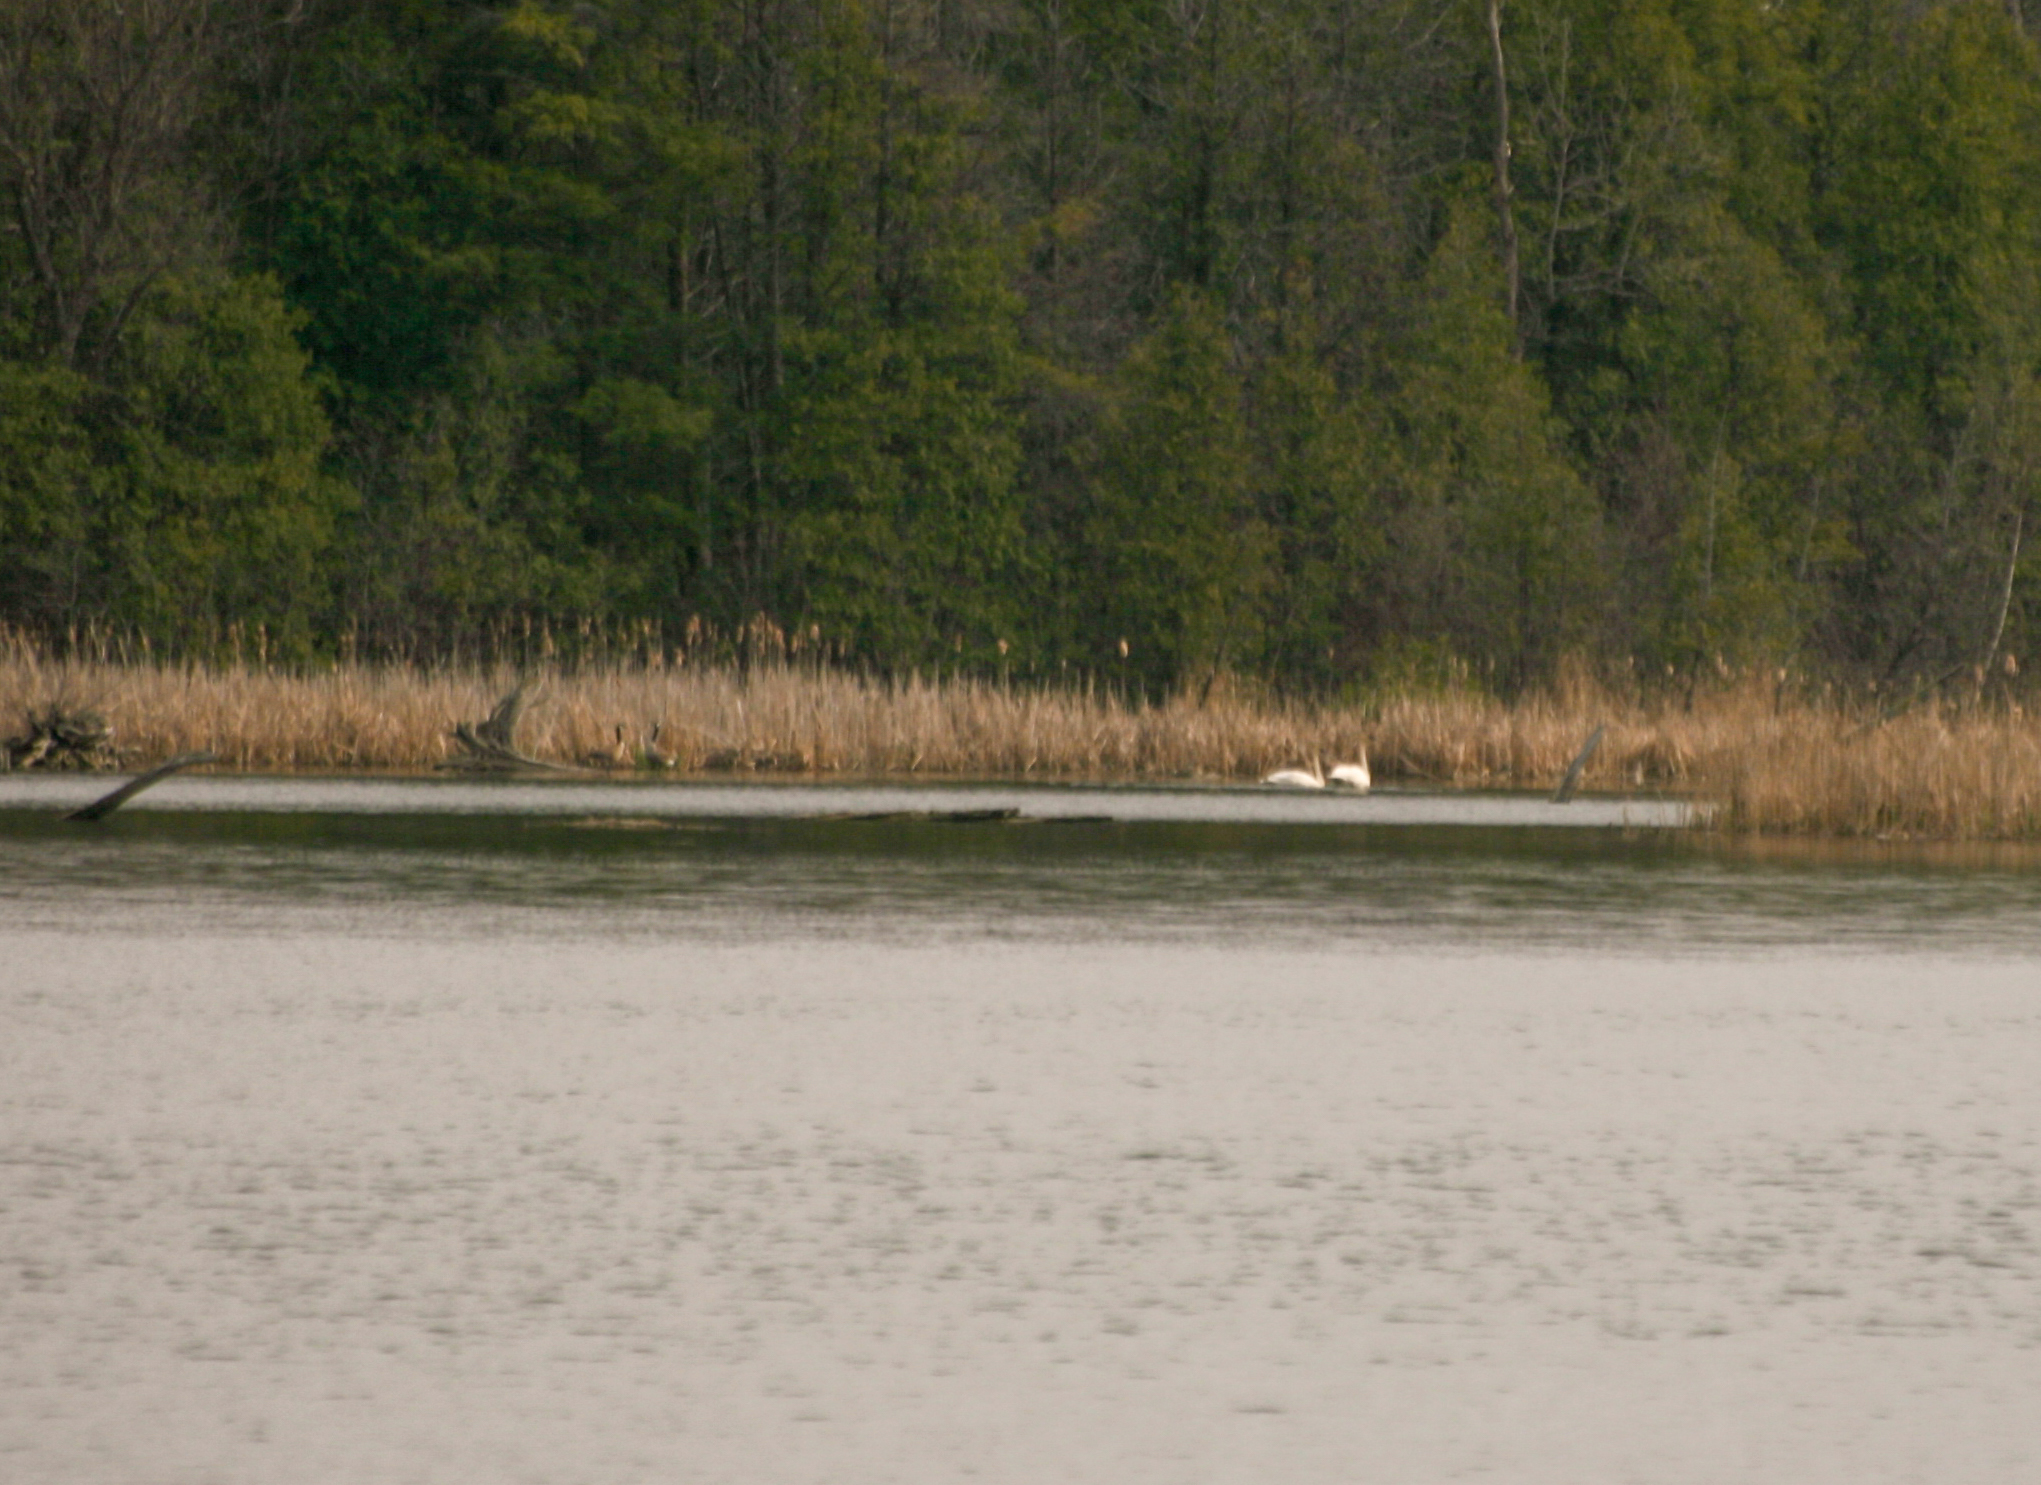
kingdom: Animalia
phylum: Chordata
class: Aves
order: Anseriformes
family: Anatidae
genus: Cygnus
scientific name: Cygnus buccinator
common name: Trumpeter swan
